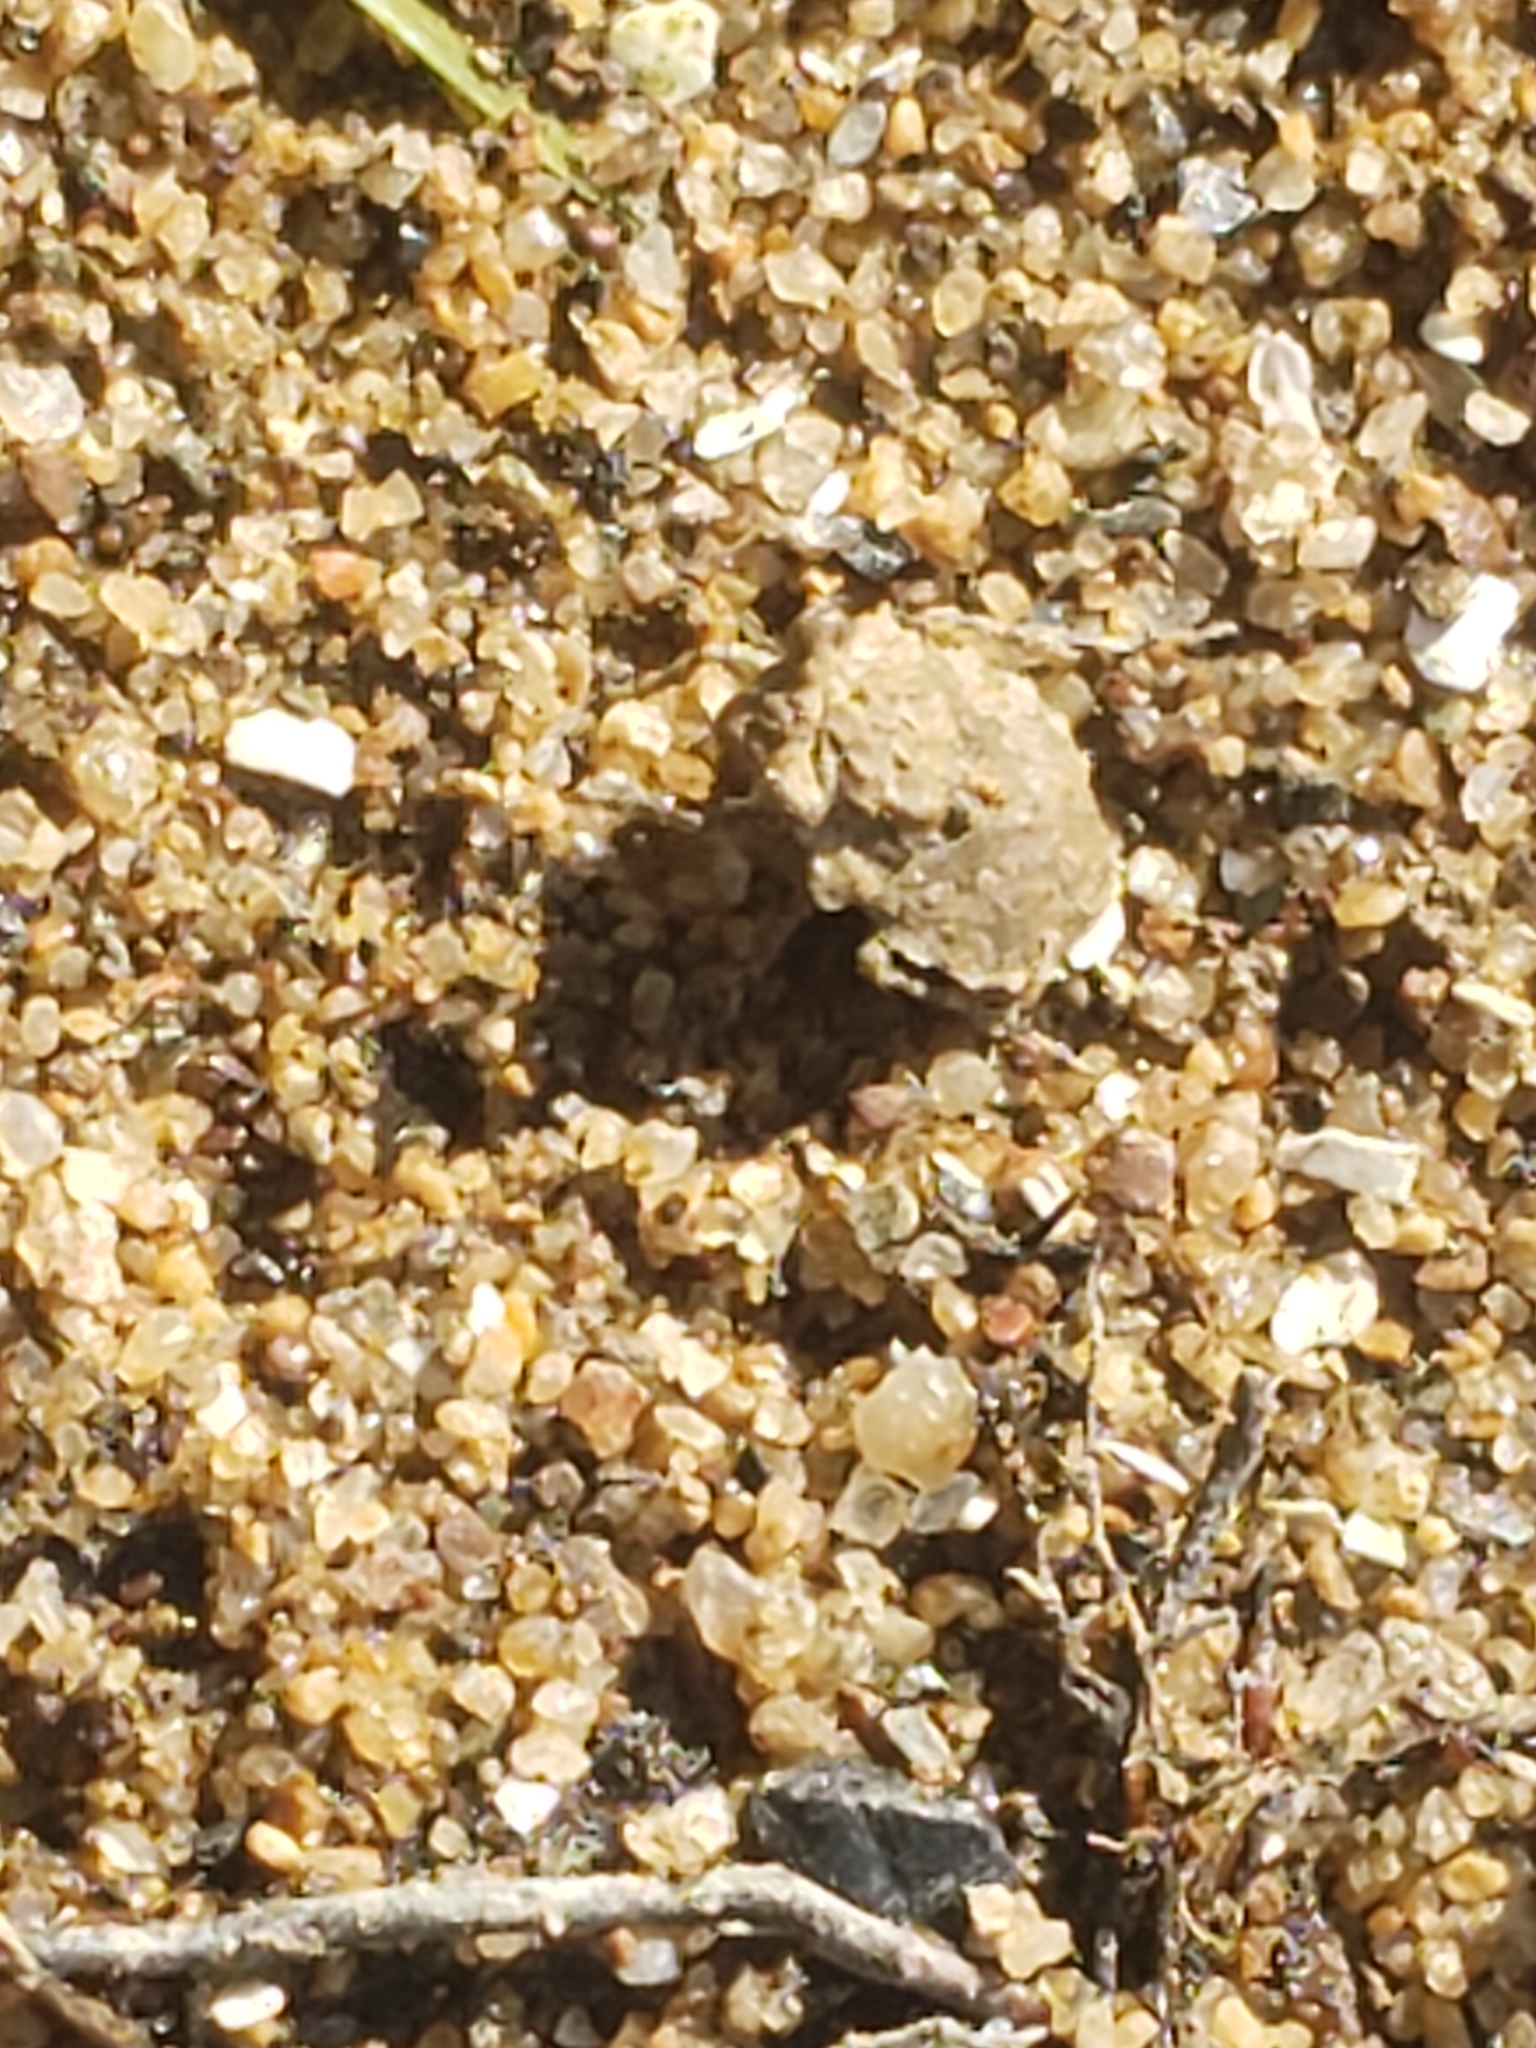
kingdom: Animalia
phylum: Arthropoda
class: Insecta
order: Hemiptera
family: Gelastocoridae
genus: Gelastocoris
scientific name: Gelastocoris oculatus
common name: Toad bug
